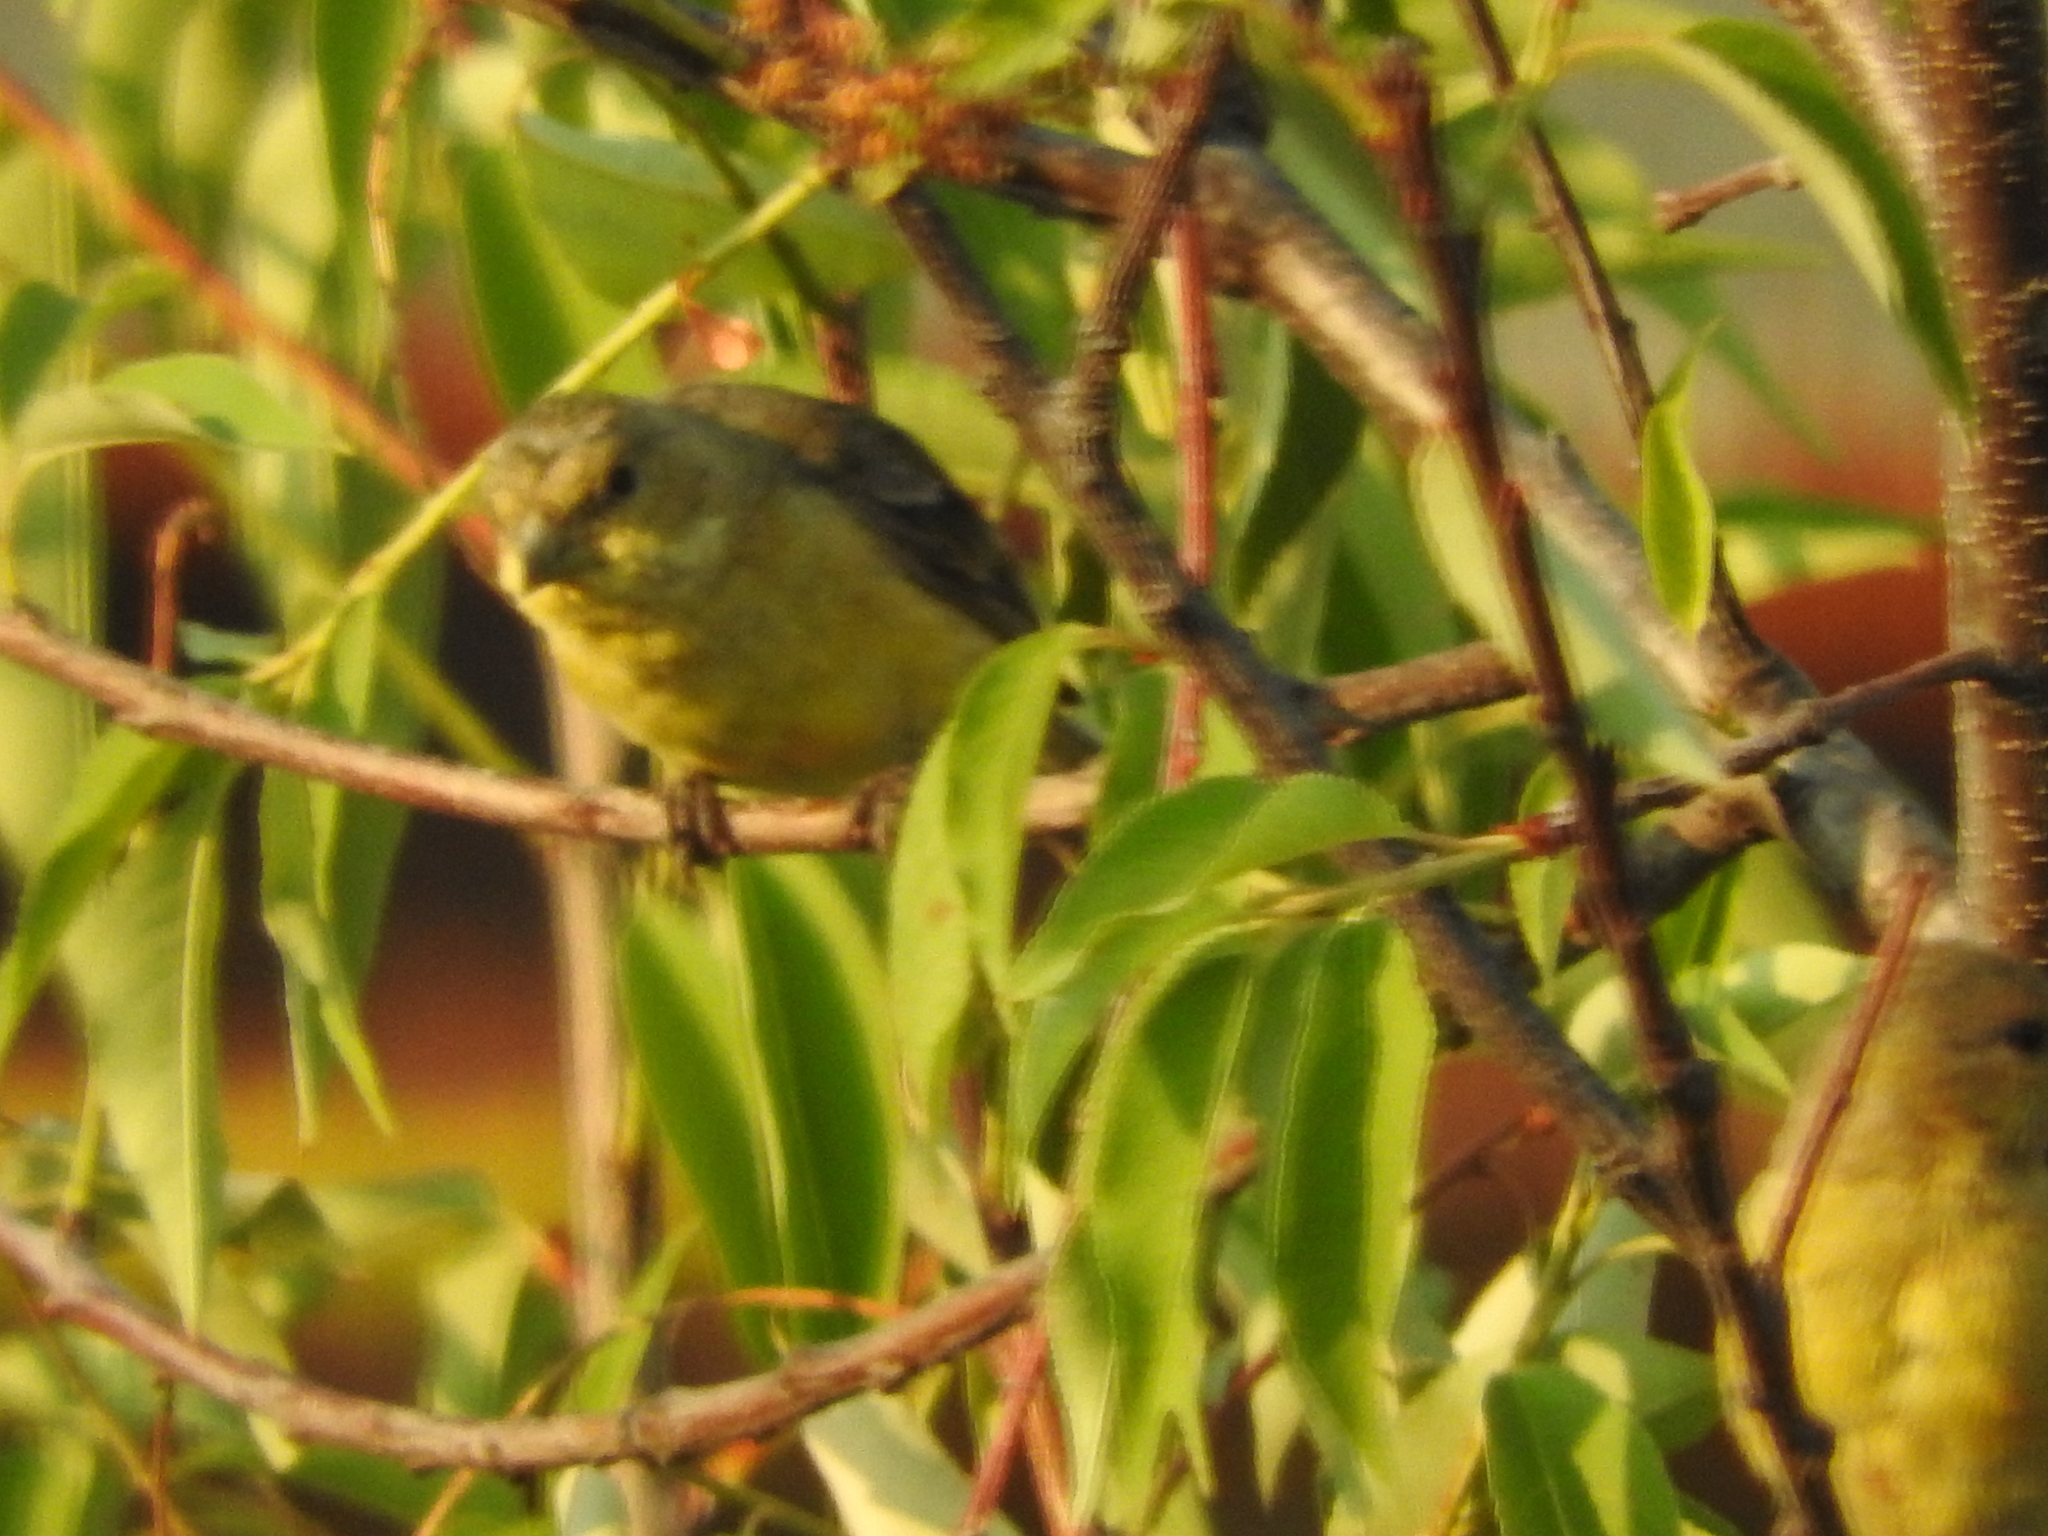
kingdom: Animalia
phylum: Chordata
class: Aves
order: Passeriformes
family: Fringillidae
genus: Spinus
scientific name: Spinus psaltria
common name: Lesser goldfinch
